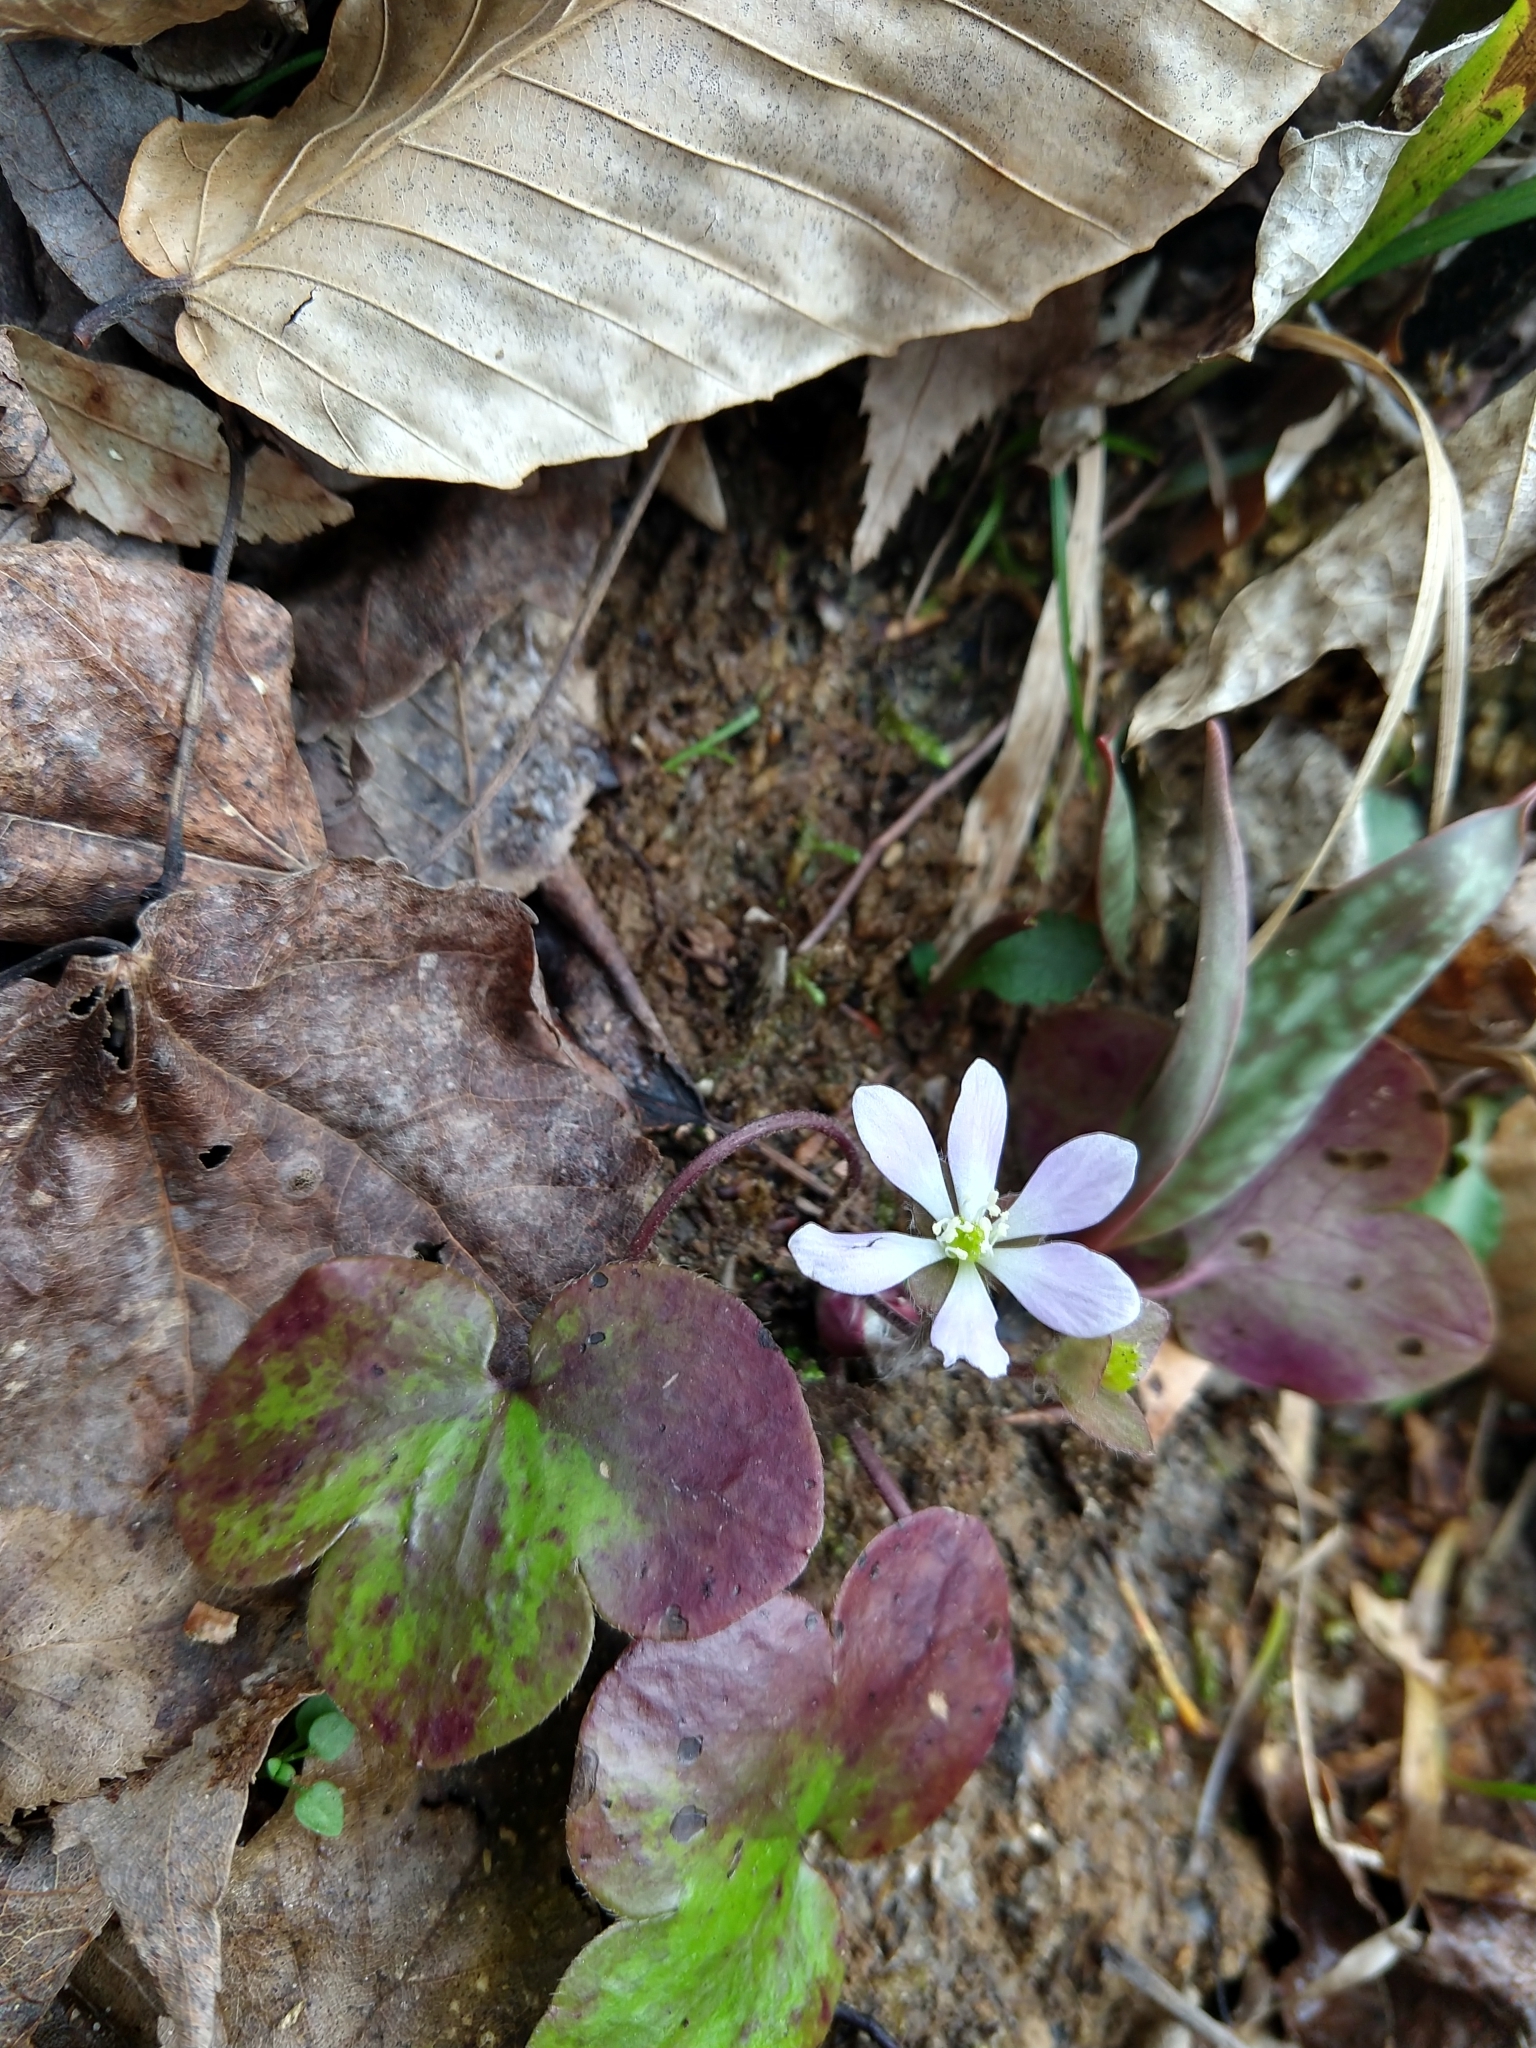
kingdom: Plantae
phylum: Tracheophyta
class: Magnoliopsida
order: Ranunculales
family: Ranunculaceae
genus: Hepatica
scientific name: Hepatica americana
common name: American hepatica
